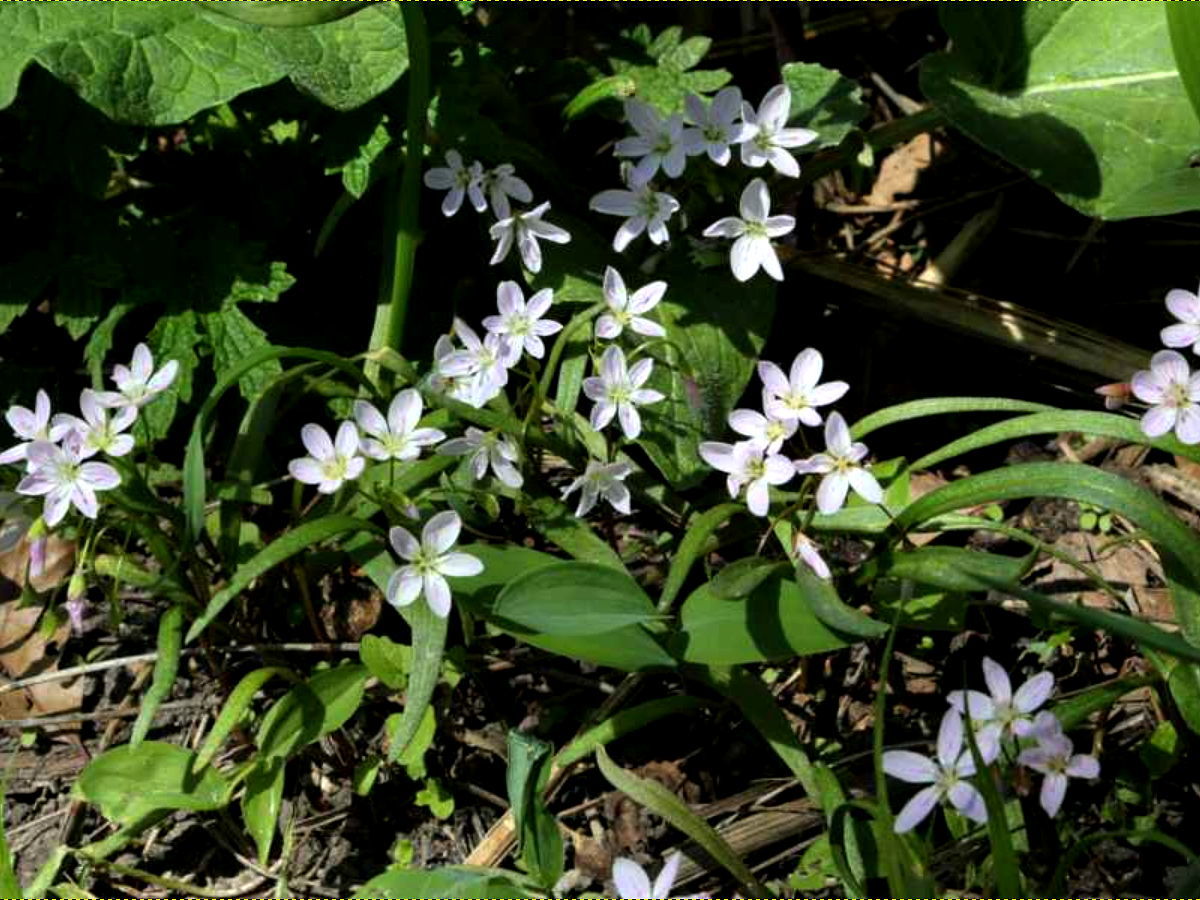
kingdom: Plantae
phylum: Tracheophyta
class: Magnoliopsida
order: Caryophyllales
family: Montiaceae
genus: Claytonia
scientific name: Claytonia virginica
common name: Virginia springbeauty
